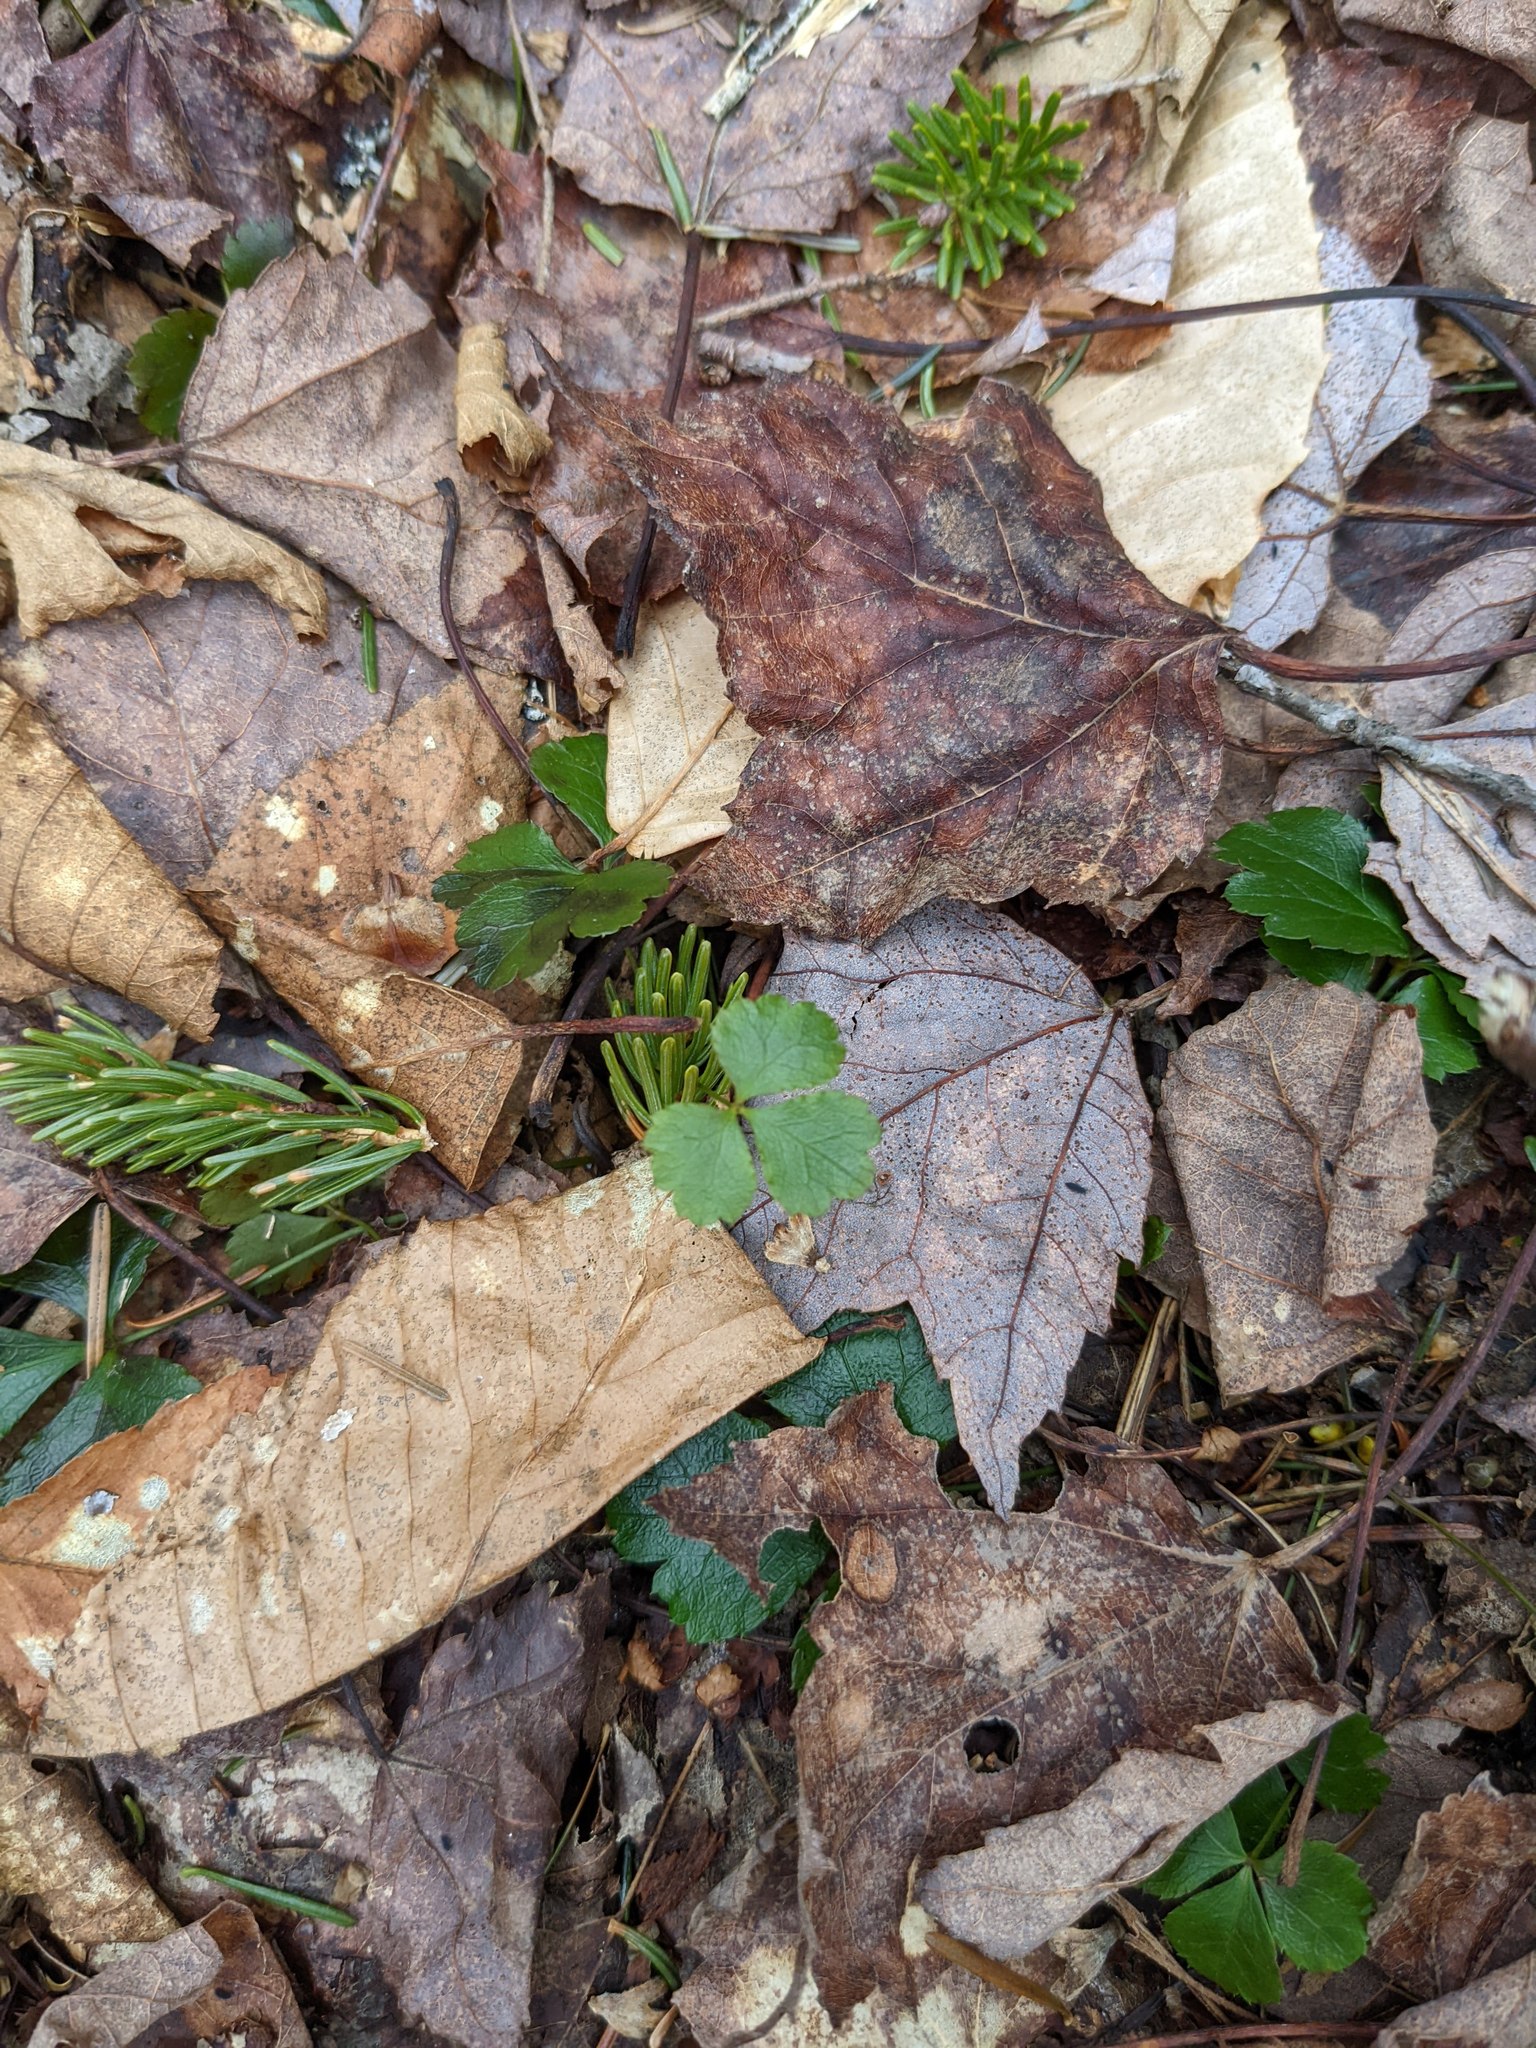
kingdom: Plantae
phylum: Tracheophyta
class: Magnoliopsida
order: Sapindales
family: Sapindaceae
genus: Acer
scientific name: Acer rubrum
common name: Red maple
